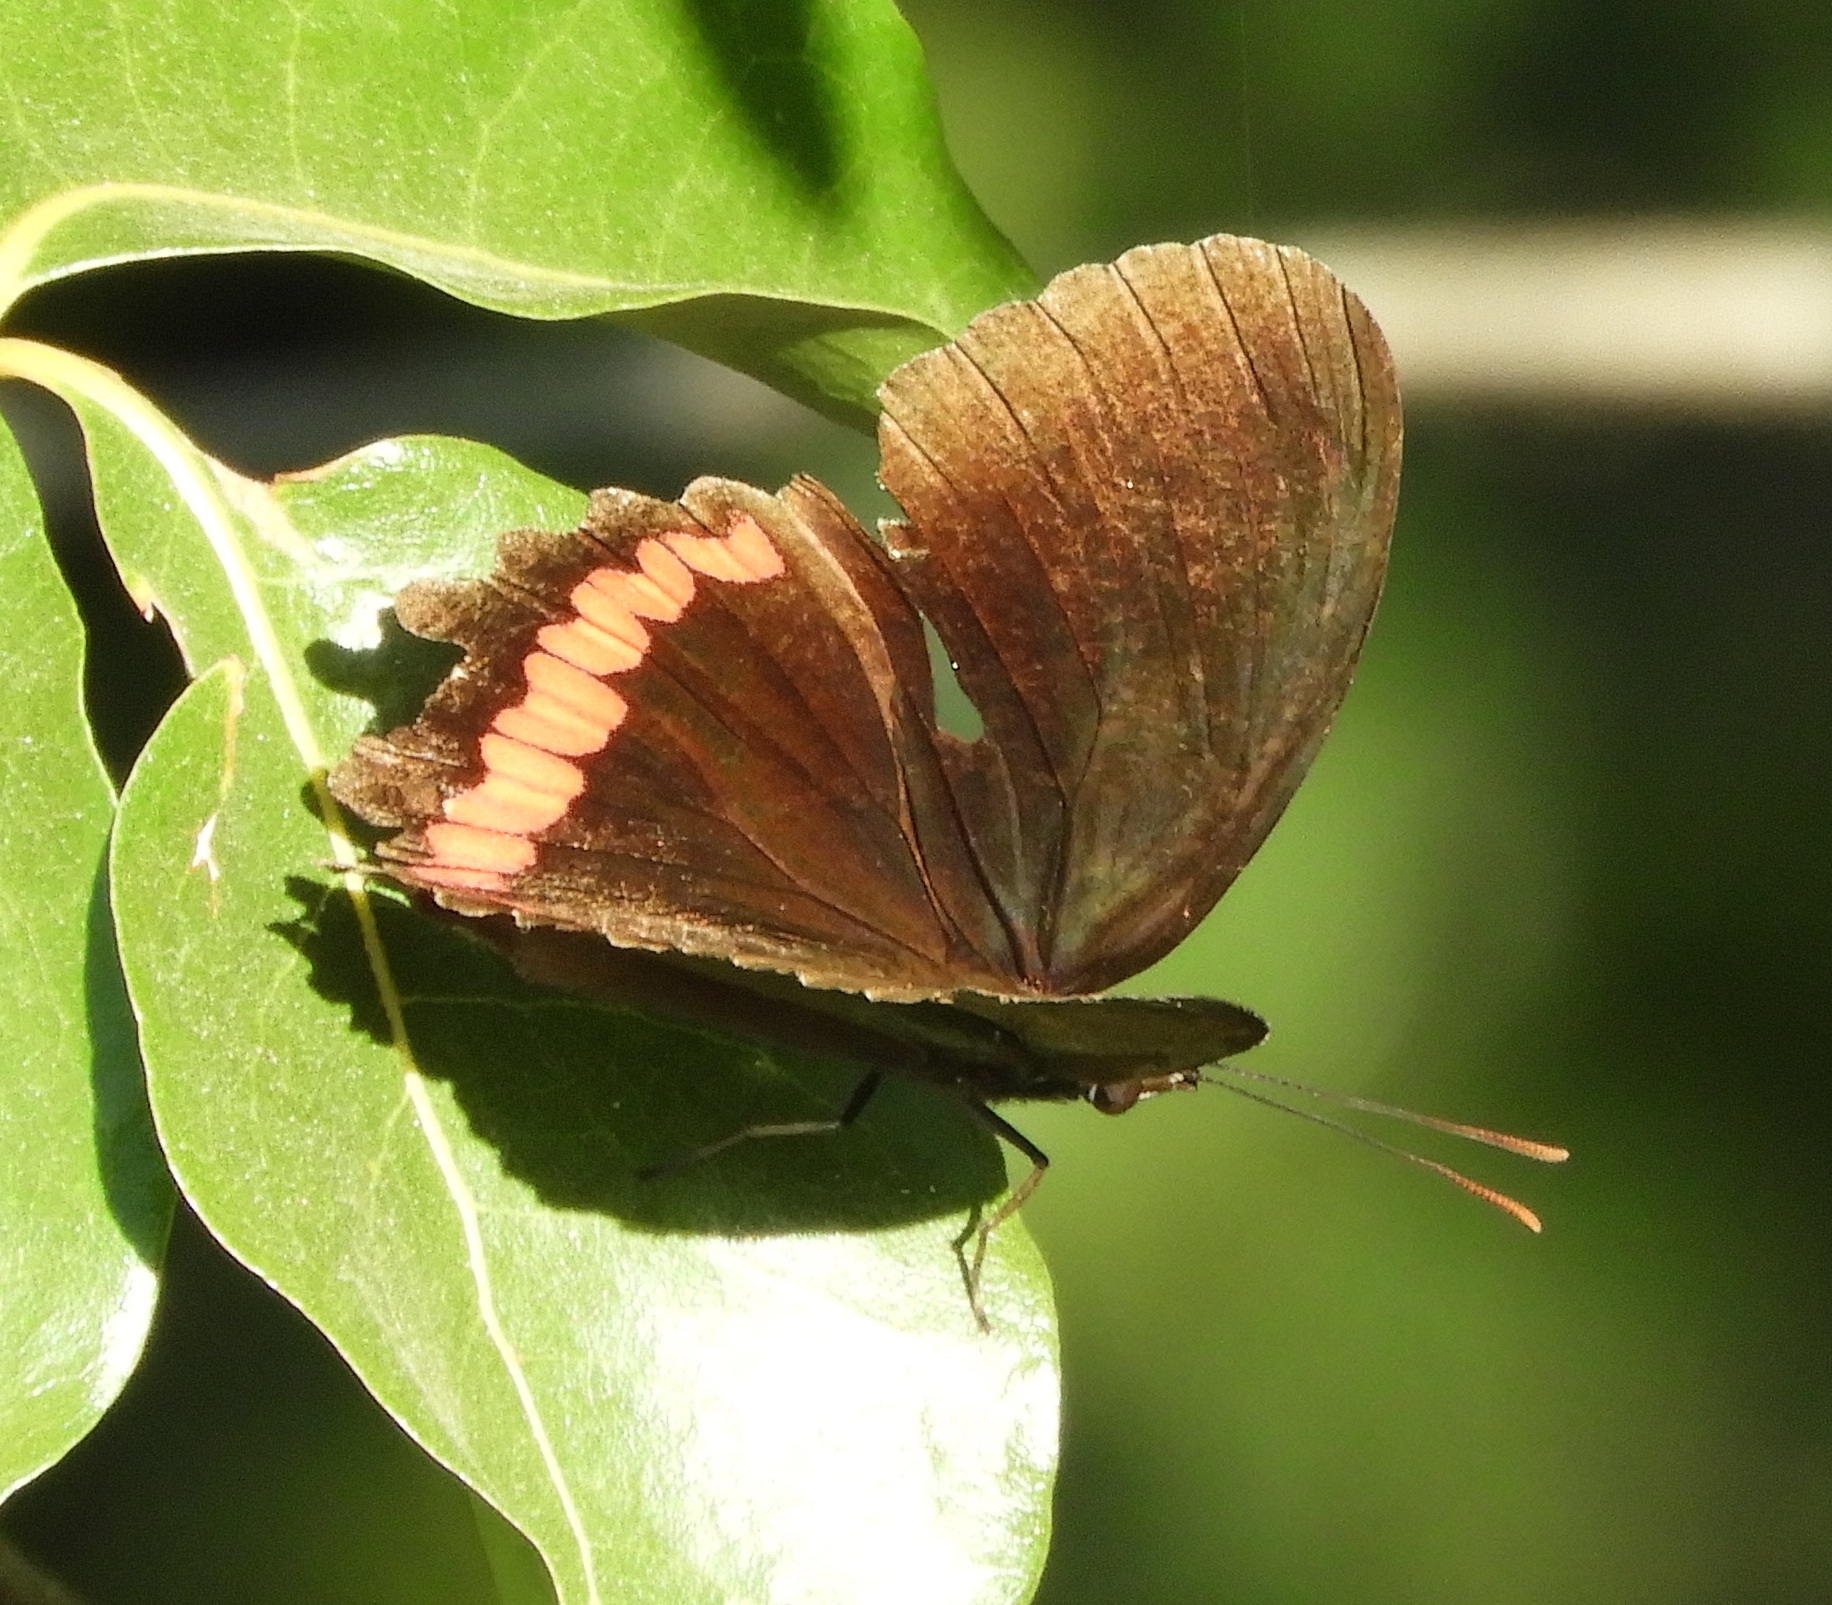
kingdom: Animalia
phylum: Arthropoda
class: Insecta
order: Lepidoptera
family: Nymphalidae
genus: Biblis
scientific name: Biblis aganisa
